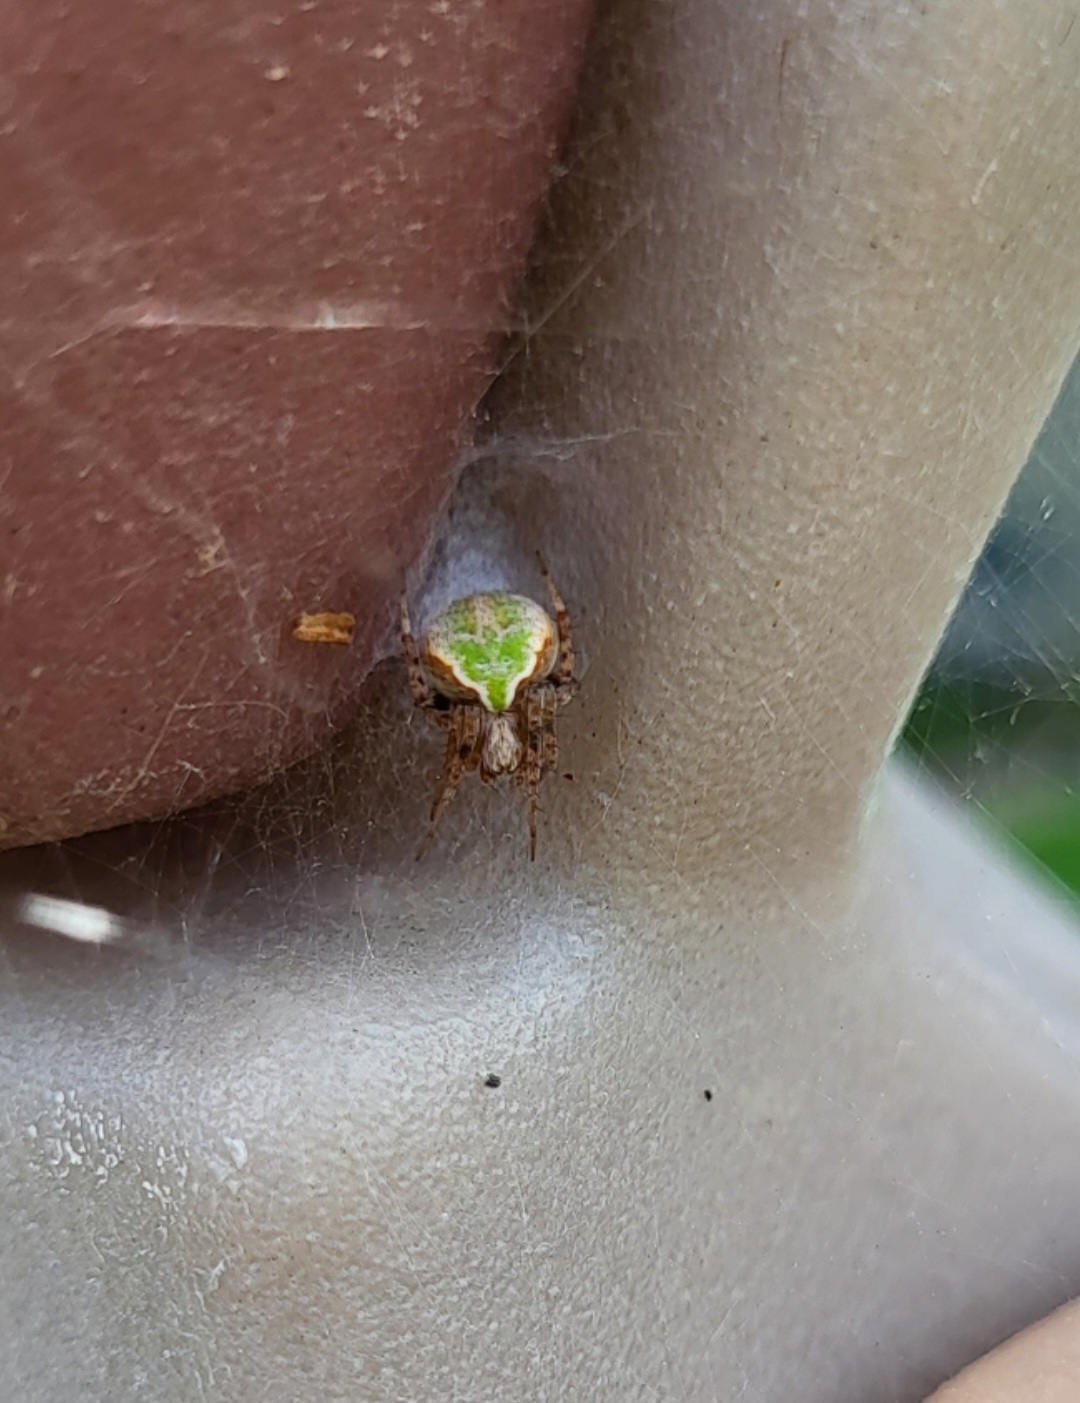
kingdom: Animalia
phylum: Arthropoda
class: Arachnida
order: Araneae
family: Araneidae
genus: Araneus
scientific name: Araneus detrimentosus
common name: Orb weavers
